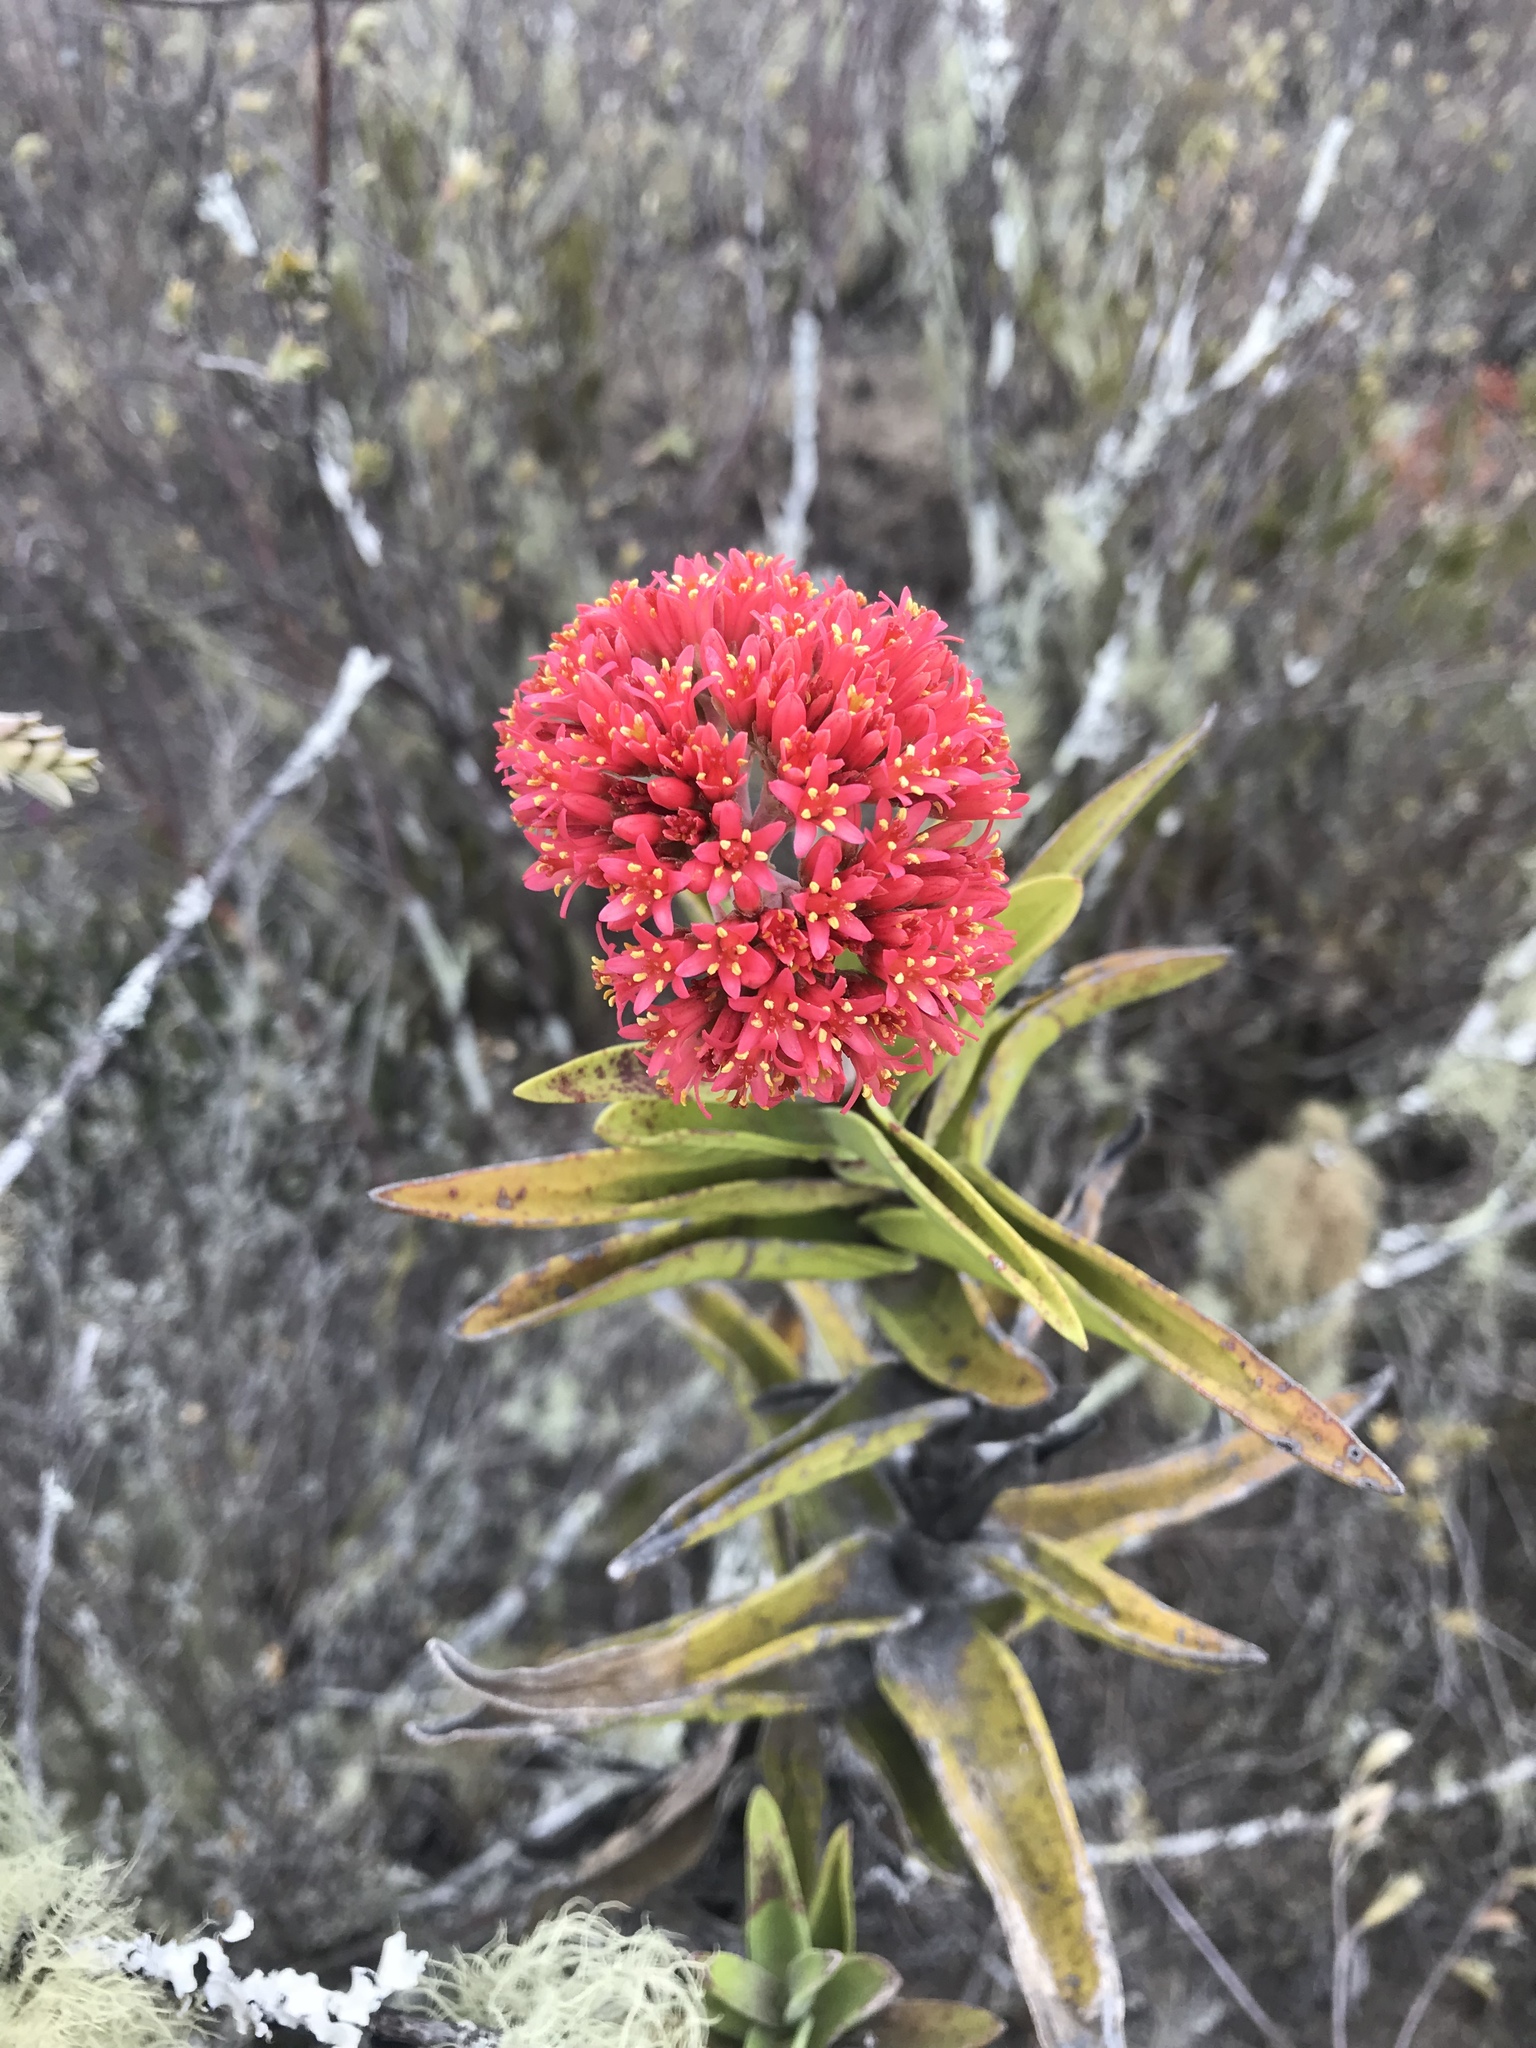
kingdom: Plantae
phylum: Tracheophyta
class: Magnoliopsida
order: Saxifragales
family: Crassulaceae
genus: Crassula
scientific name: Crassula perfoliata
